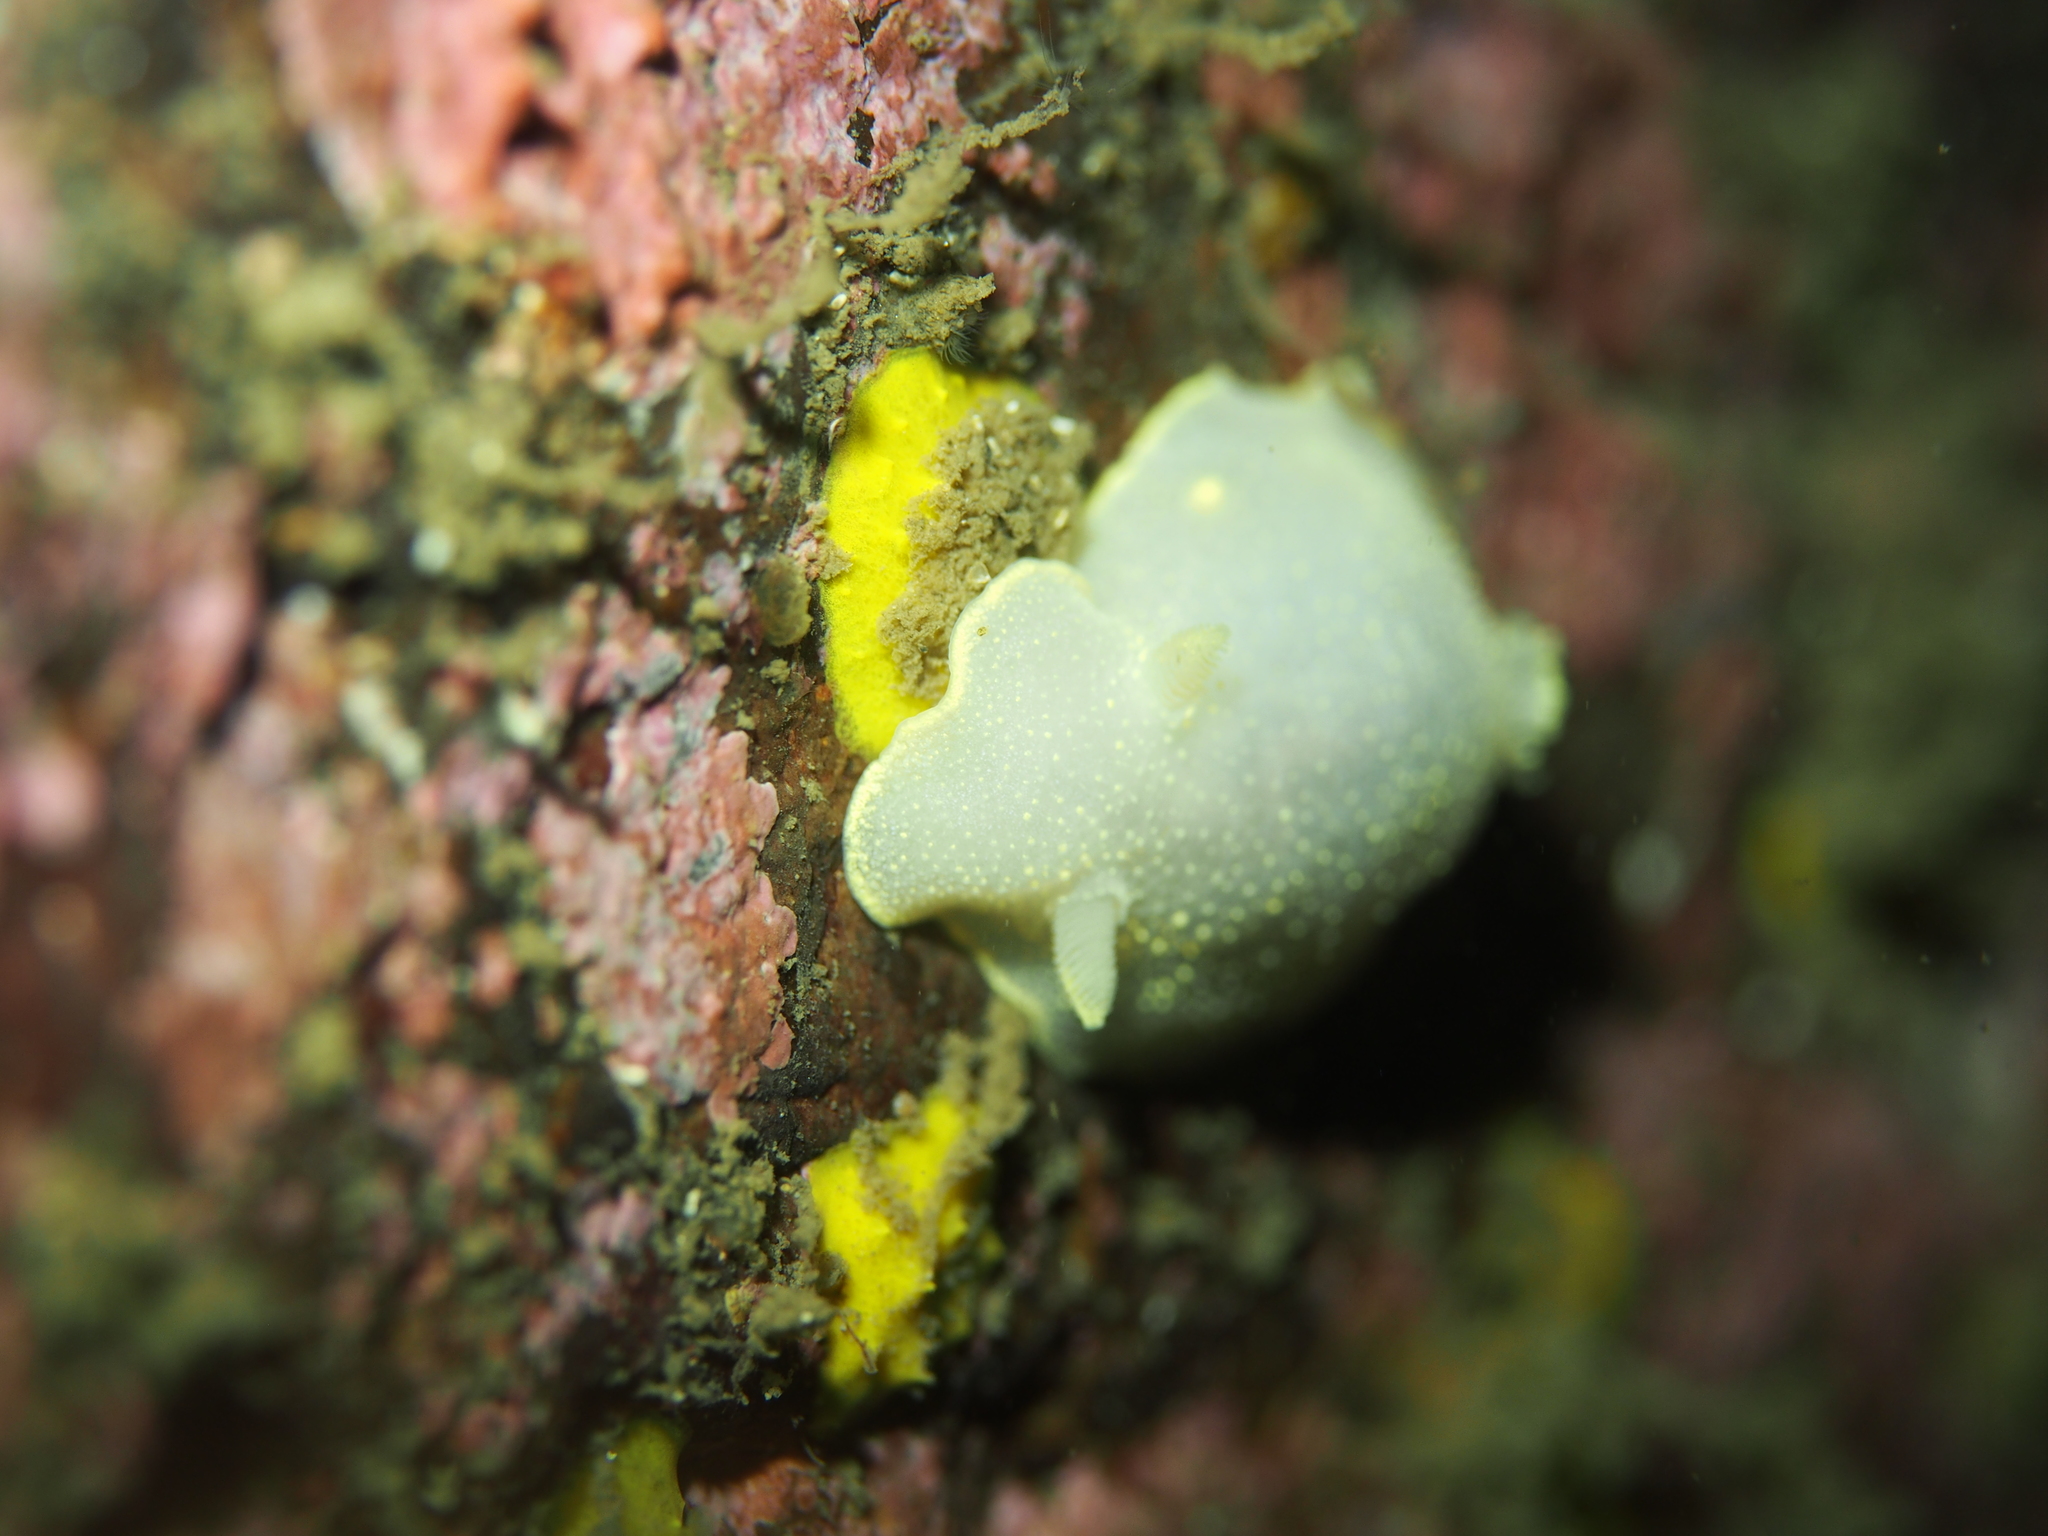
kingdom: Animalia
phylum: Mollusca
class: Gastropoda
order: Nudibranchia
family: Cadlinidae
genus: Cadlina
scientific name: Cadlina laevis
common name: White atlantic cadlina
